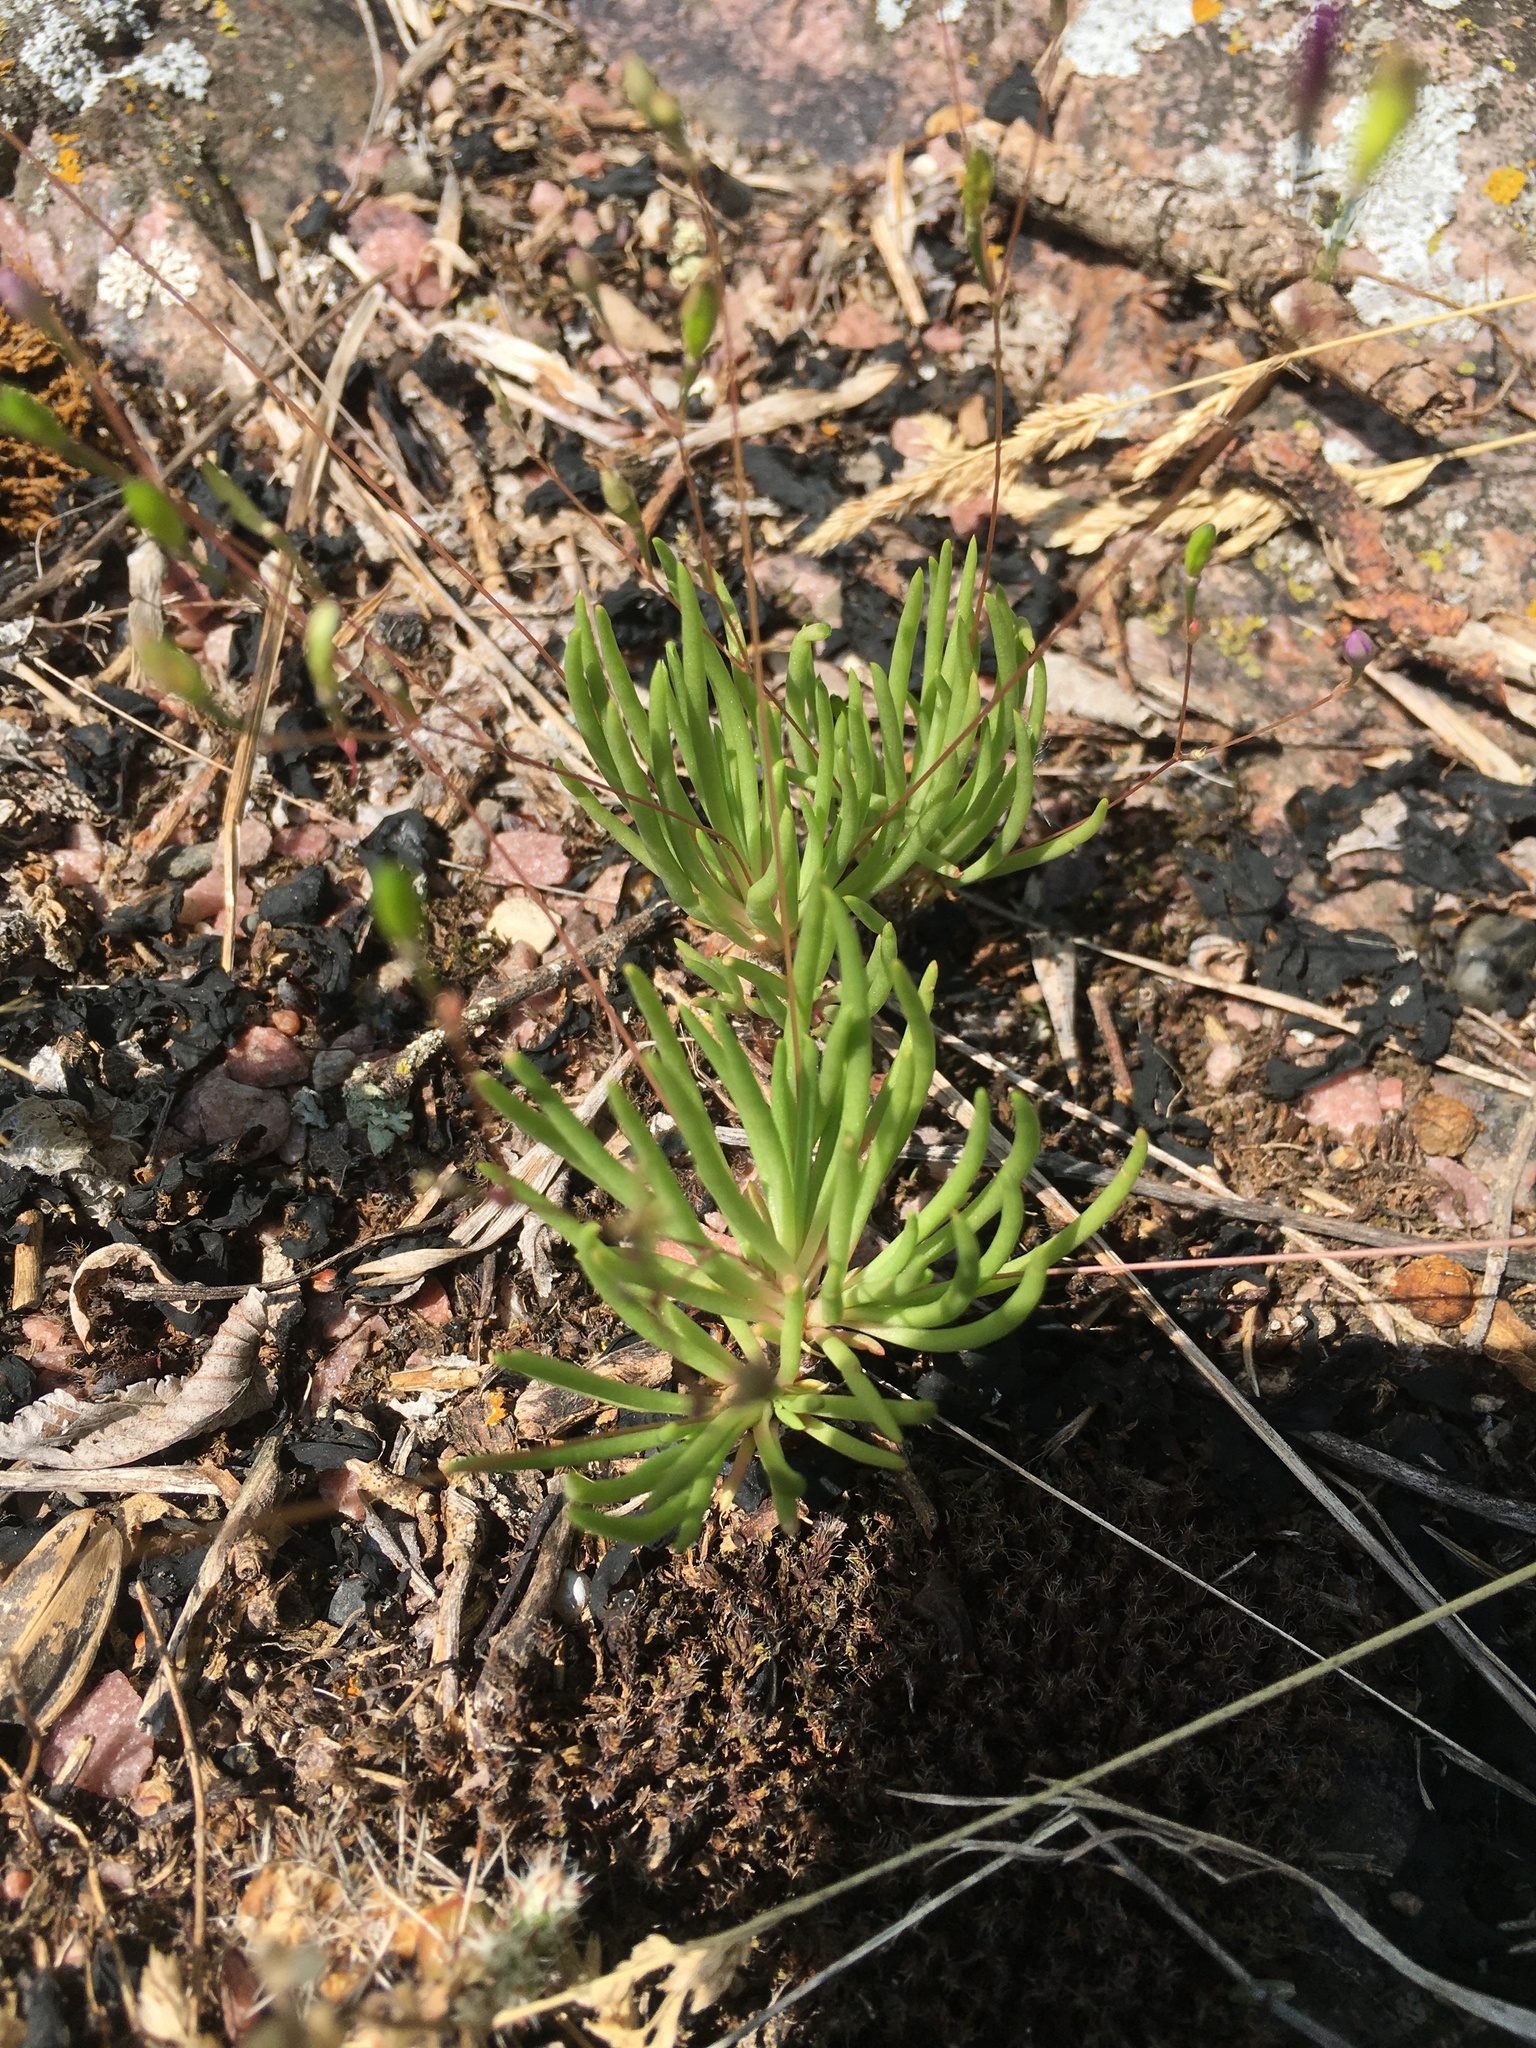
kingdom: Plantae
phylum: Tracheophyta
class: Magnoliopsida
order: Caryophyllales
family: Montiaceae
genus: Phemeranthus
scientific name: Phemeranthus parviflorus
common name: Sunbright
